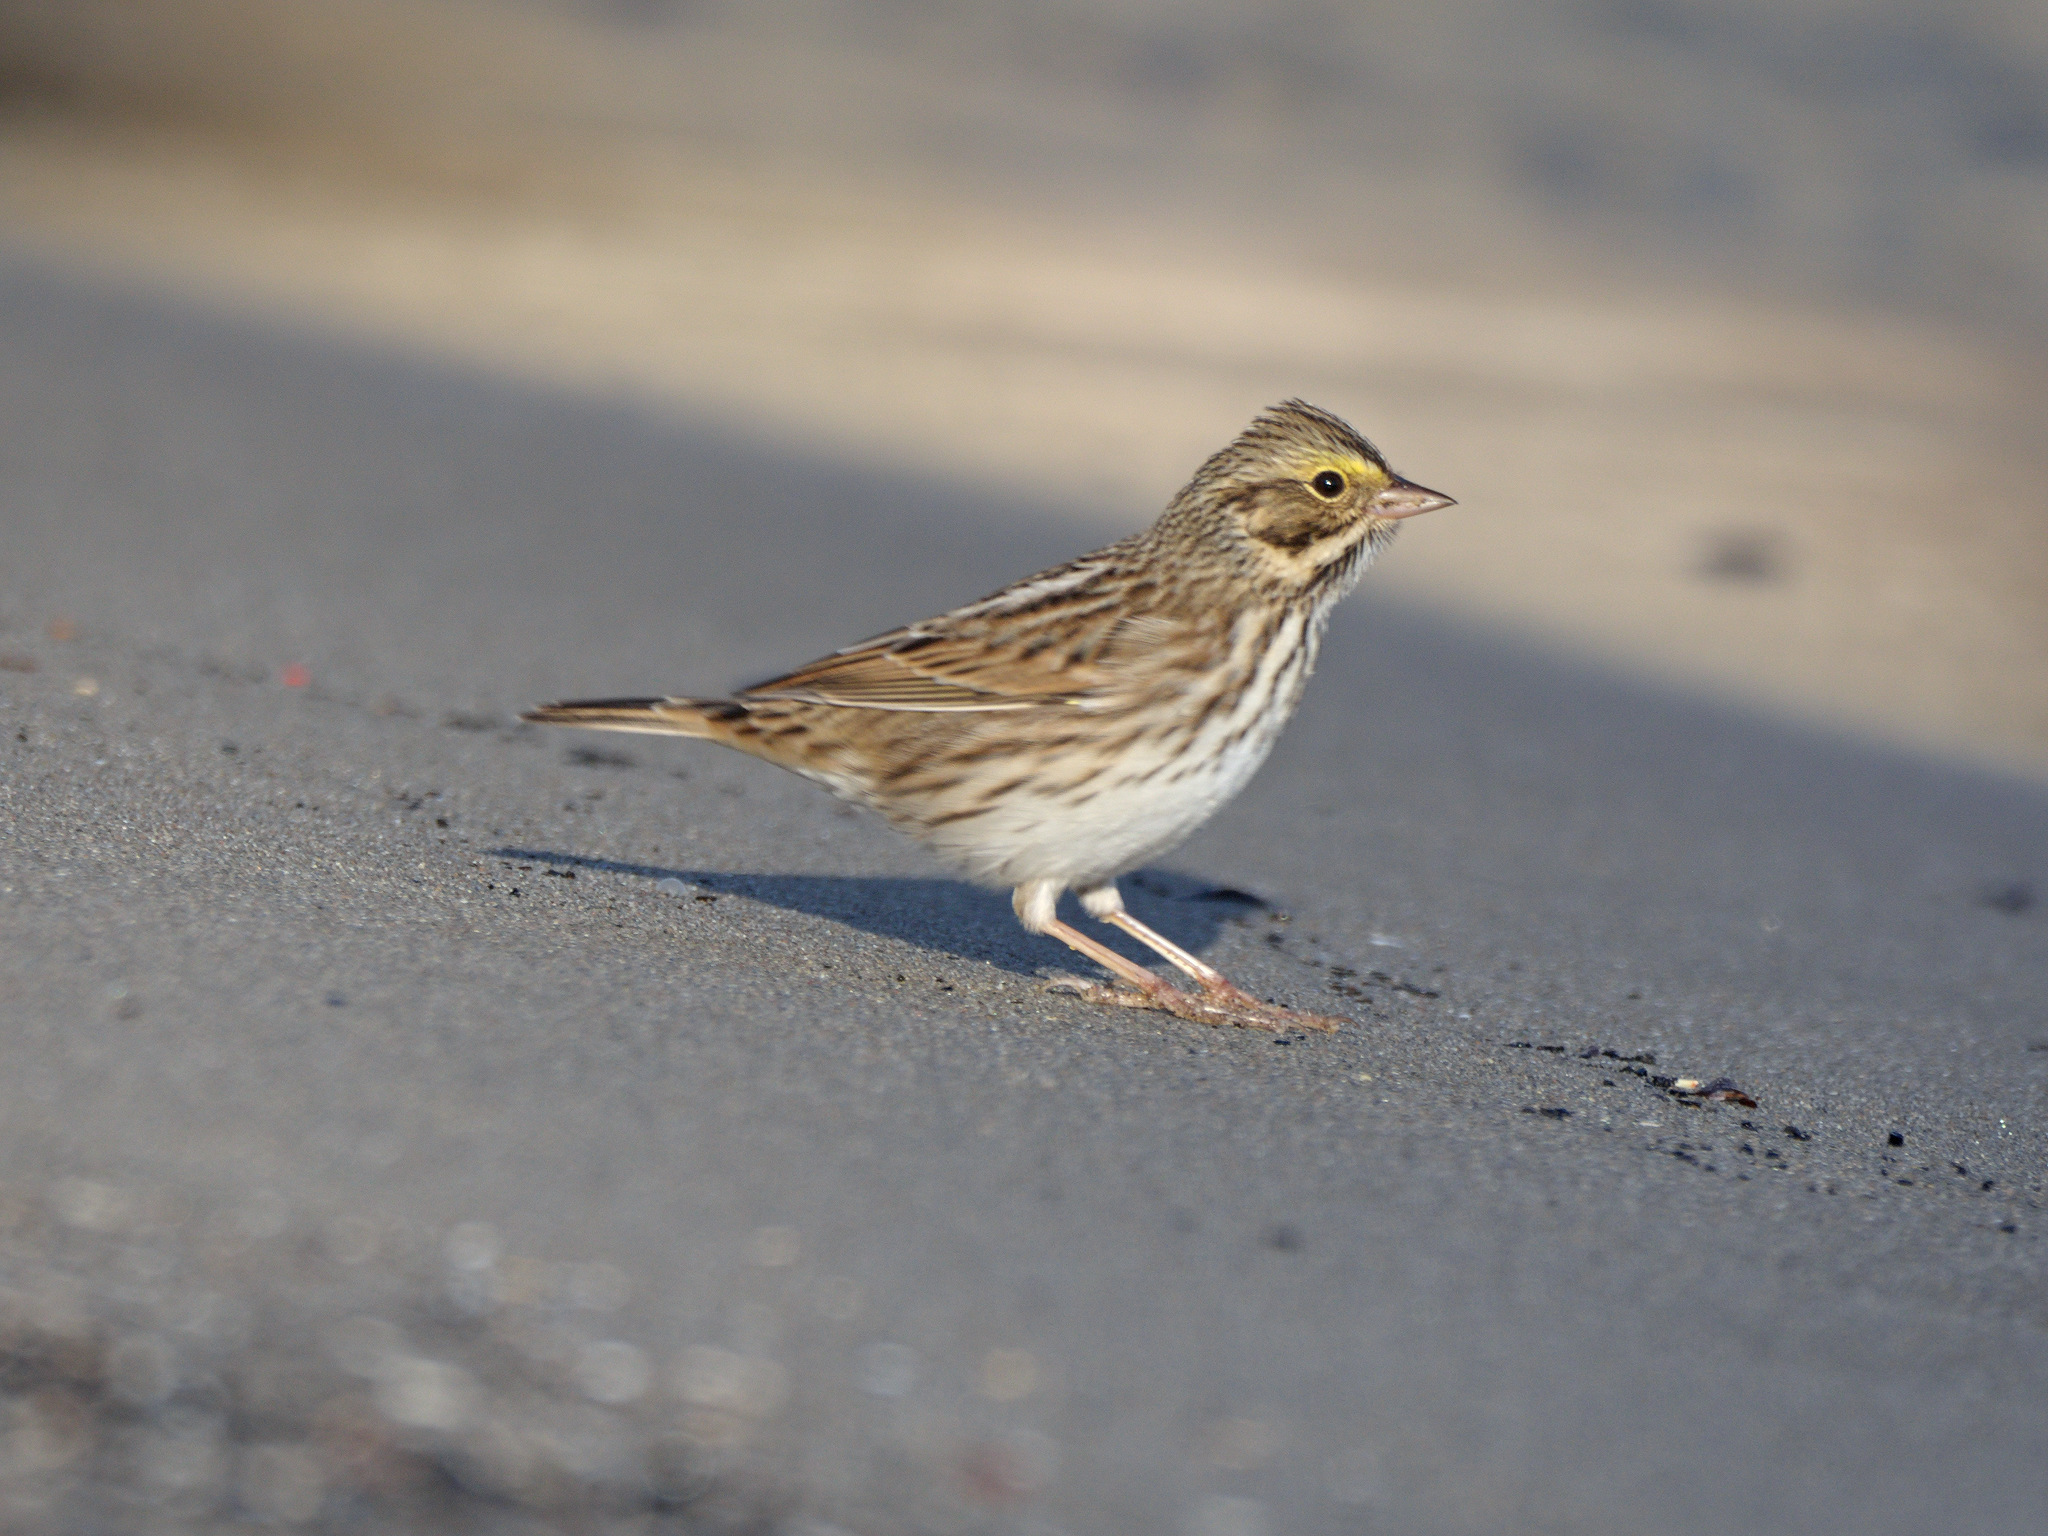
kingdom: Animalia
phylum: Chordata
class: Aves
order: Passeriformes
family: Passerellidae
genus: Passerculus
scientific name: Passerculus sandwichensis
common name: Savannah sparrow
